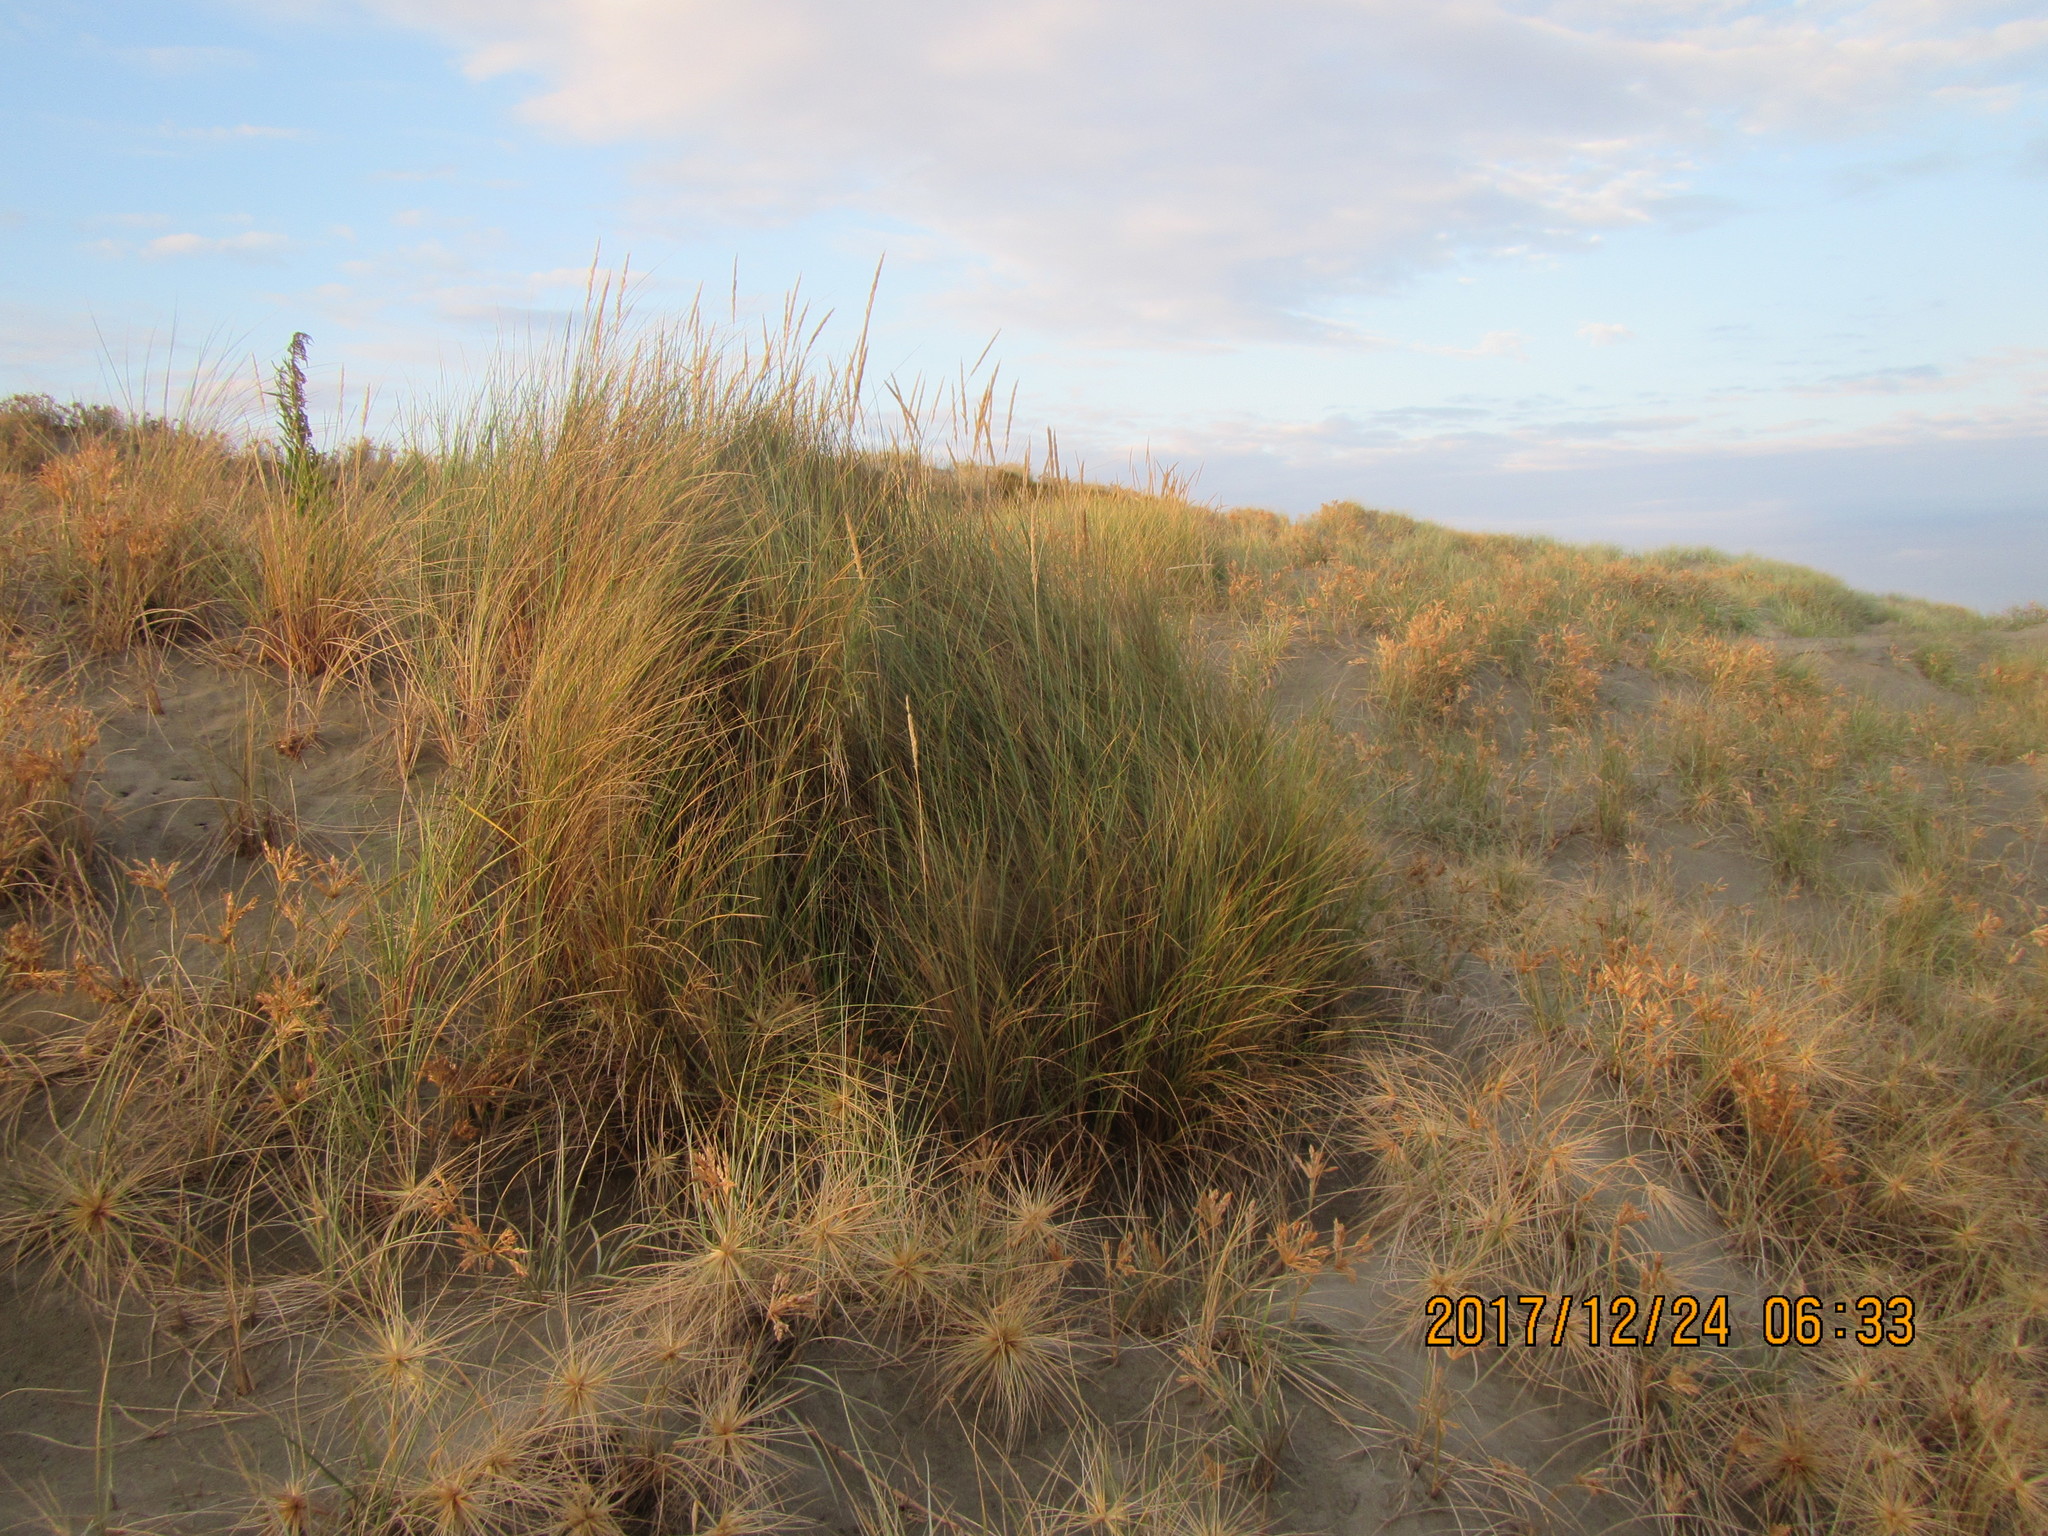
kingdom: Plantae
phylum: Tracheophyta
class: Liliopsida
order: Poales
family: Poaceae
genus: Calamagrostis
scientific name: Calamagrostis arenaria
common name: European beachgrass
